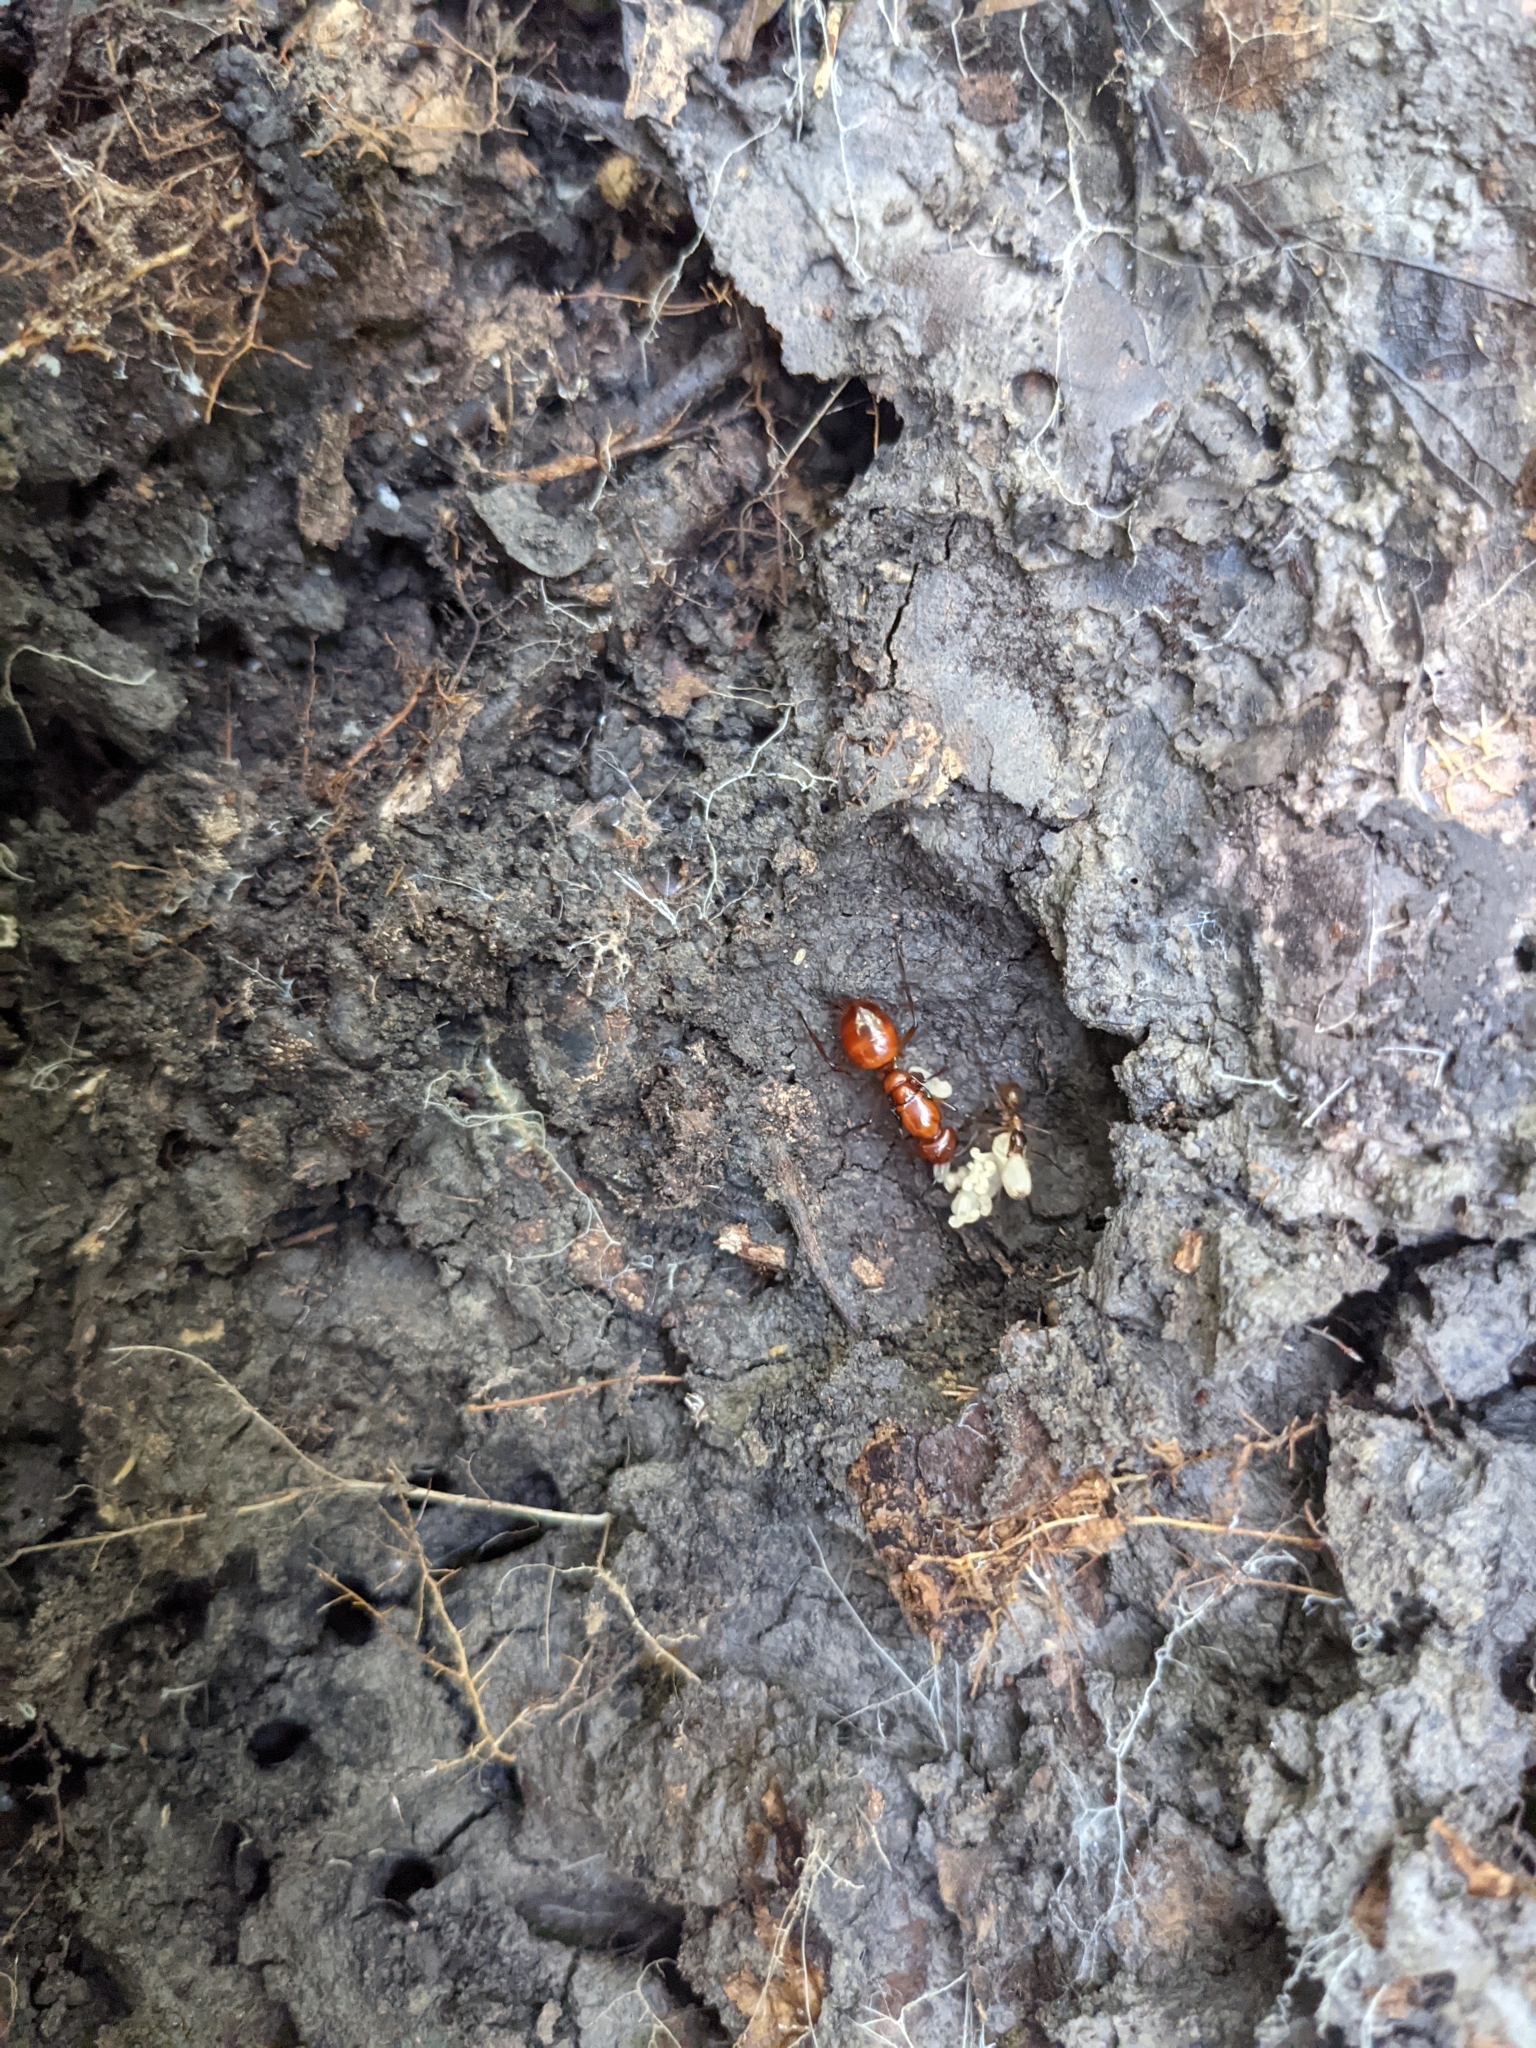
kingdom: Animalia
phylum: Arthropoda
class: Insecta
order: Hymenoptera
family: Formicidae
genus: Camponotus
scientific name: Camponotus castaneus
